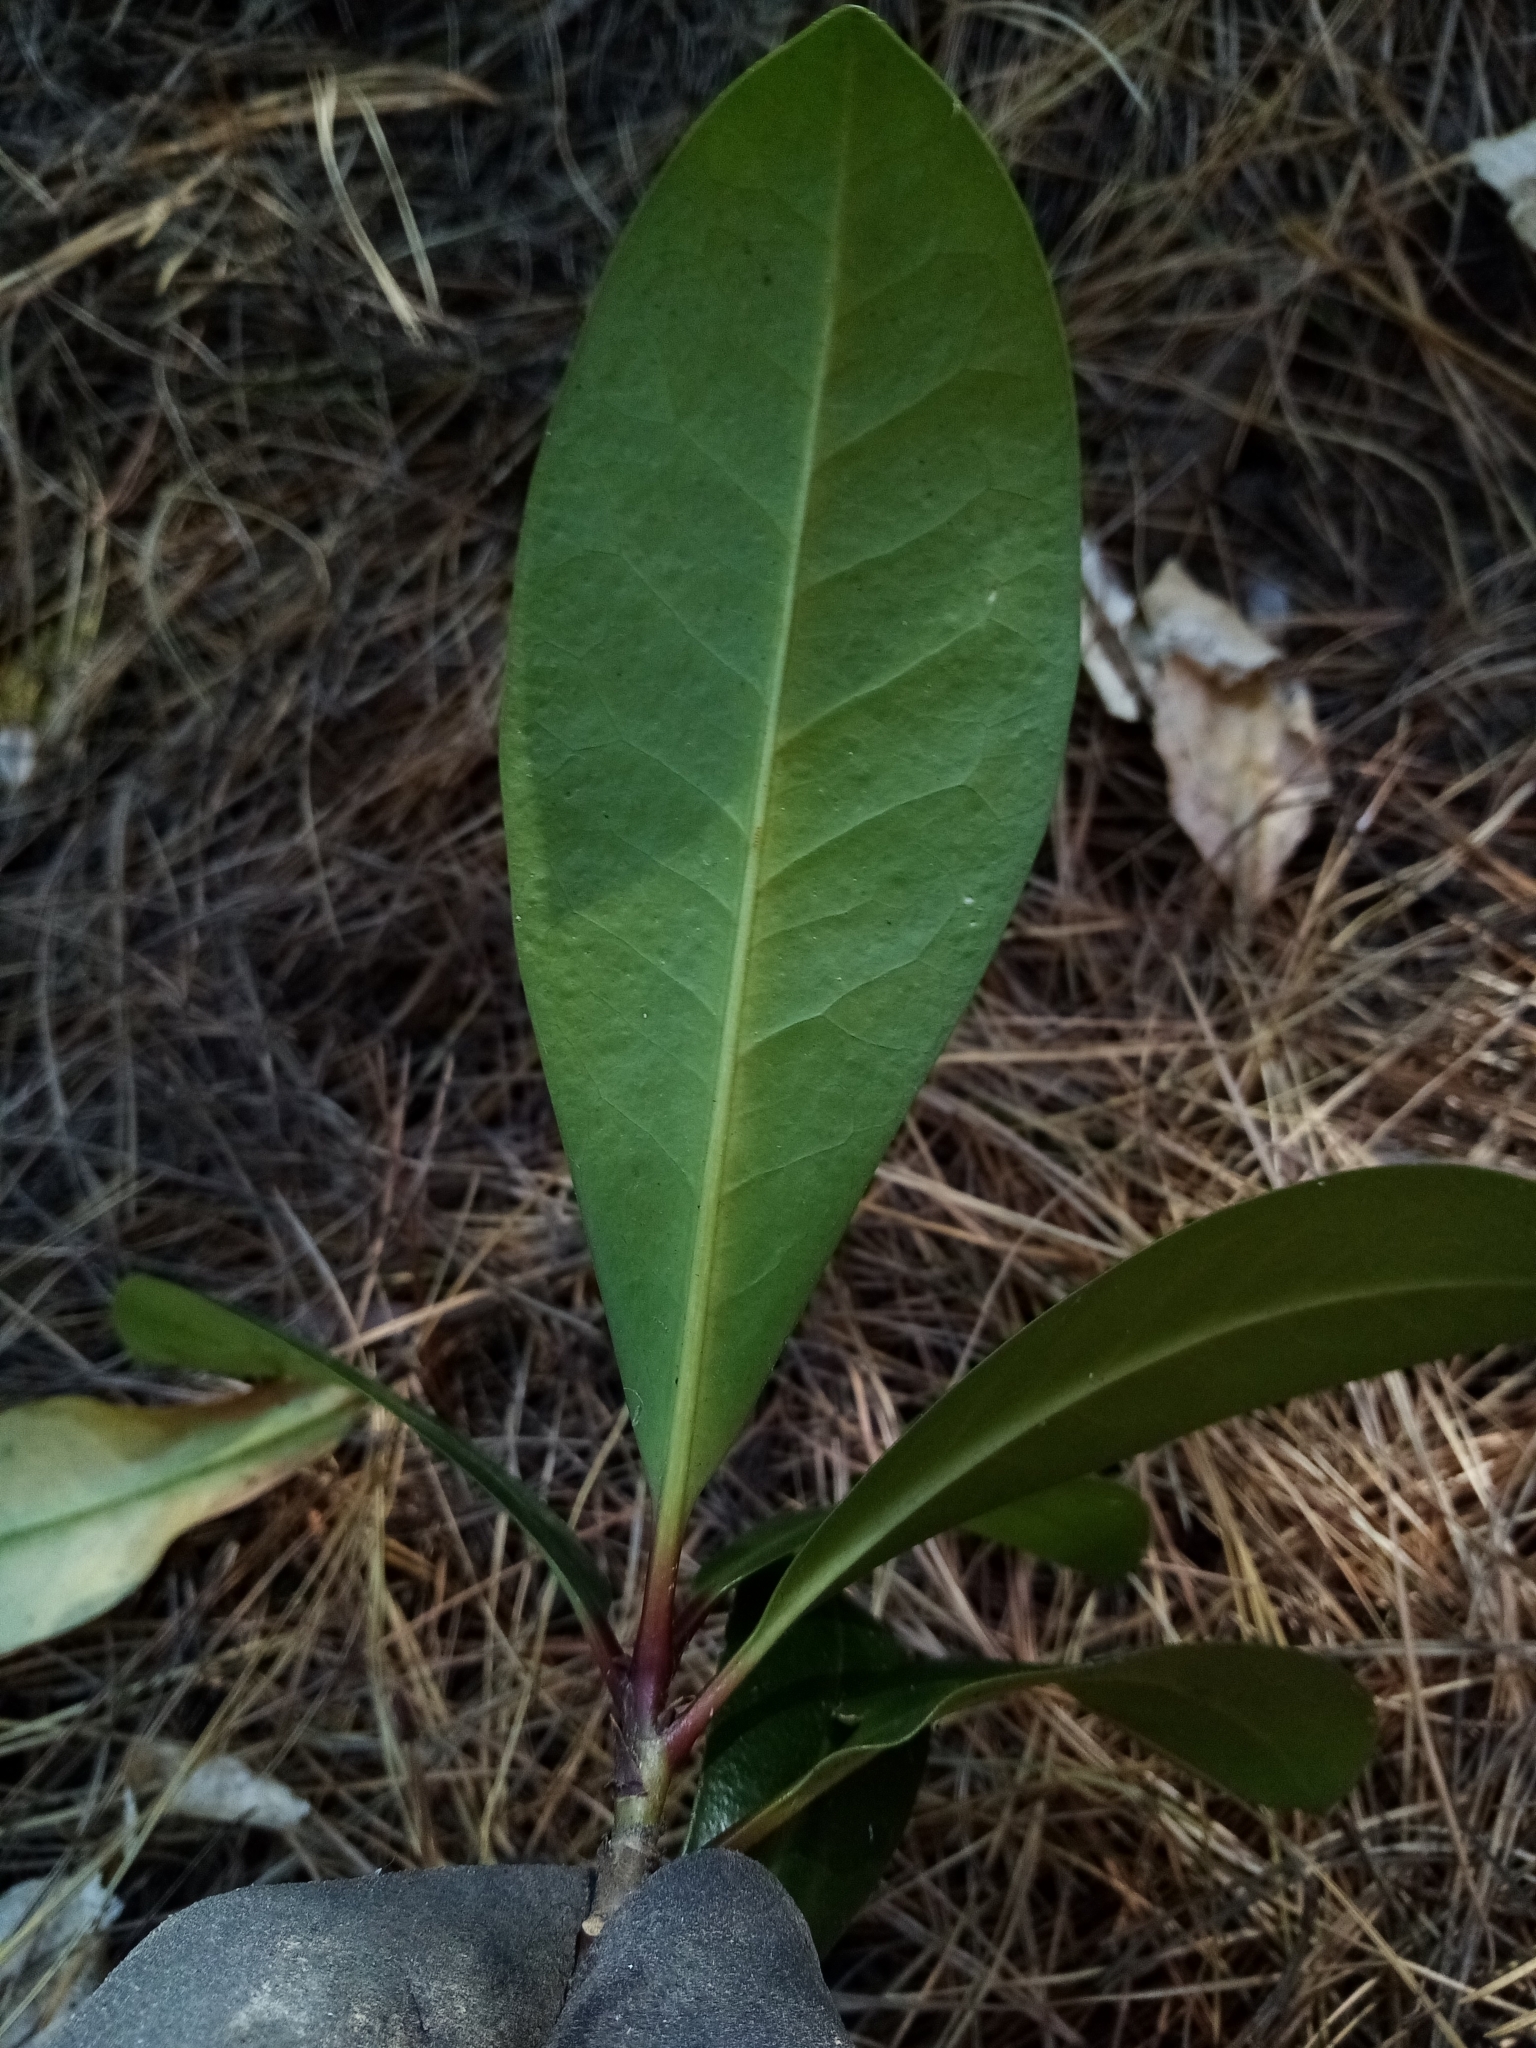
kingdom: Plantae
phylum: Tracheophyta
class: Magnoliopsida
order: Cucurbitales
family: Corynocarpaceae
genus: Corynocarpus
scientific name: Corynocarpus laevigatus
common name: New zealand laurel
